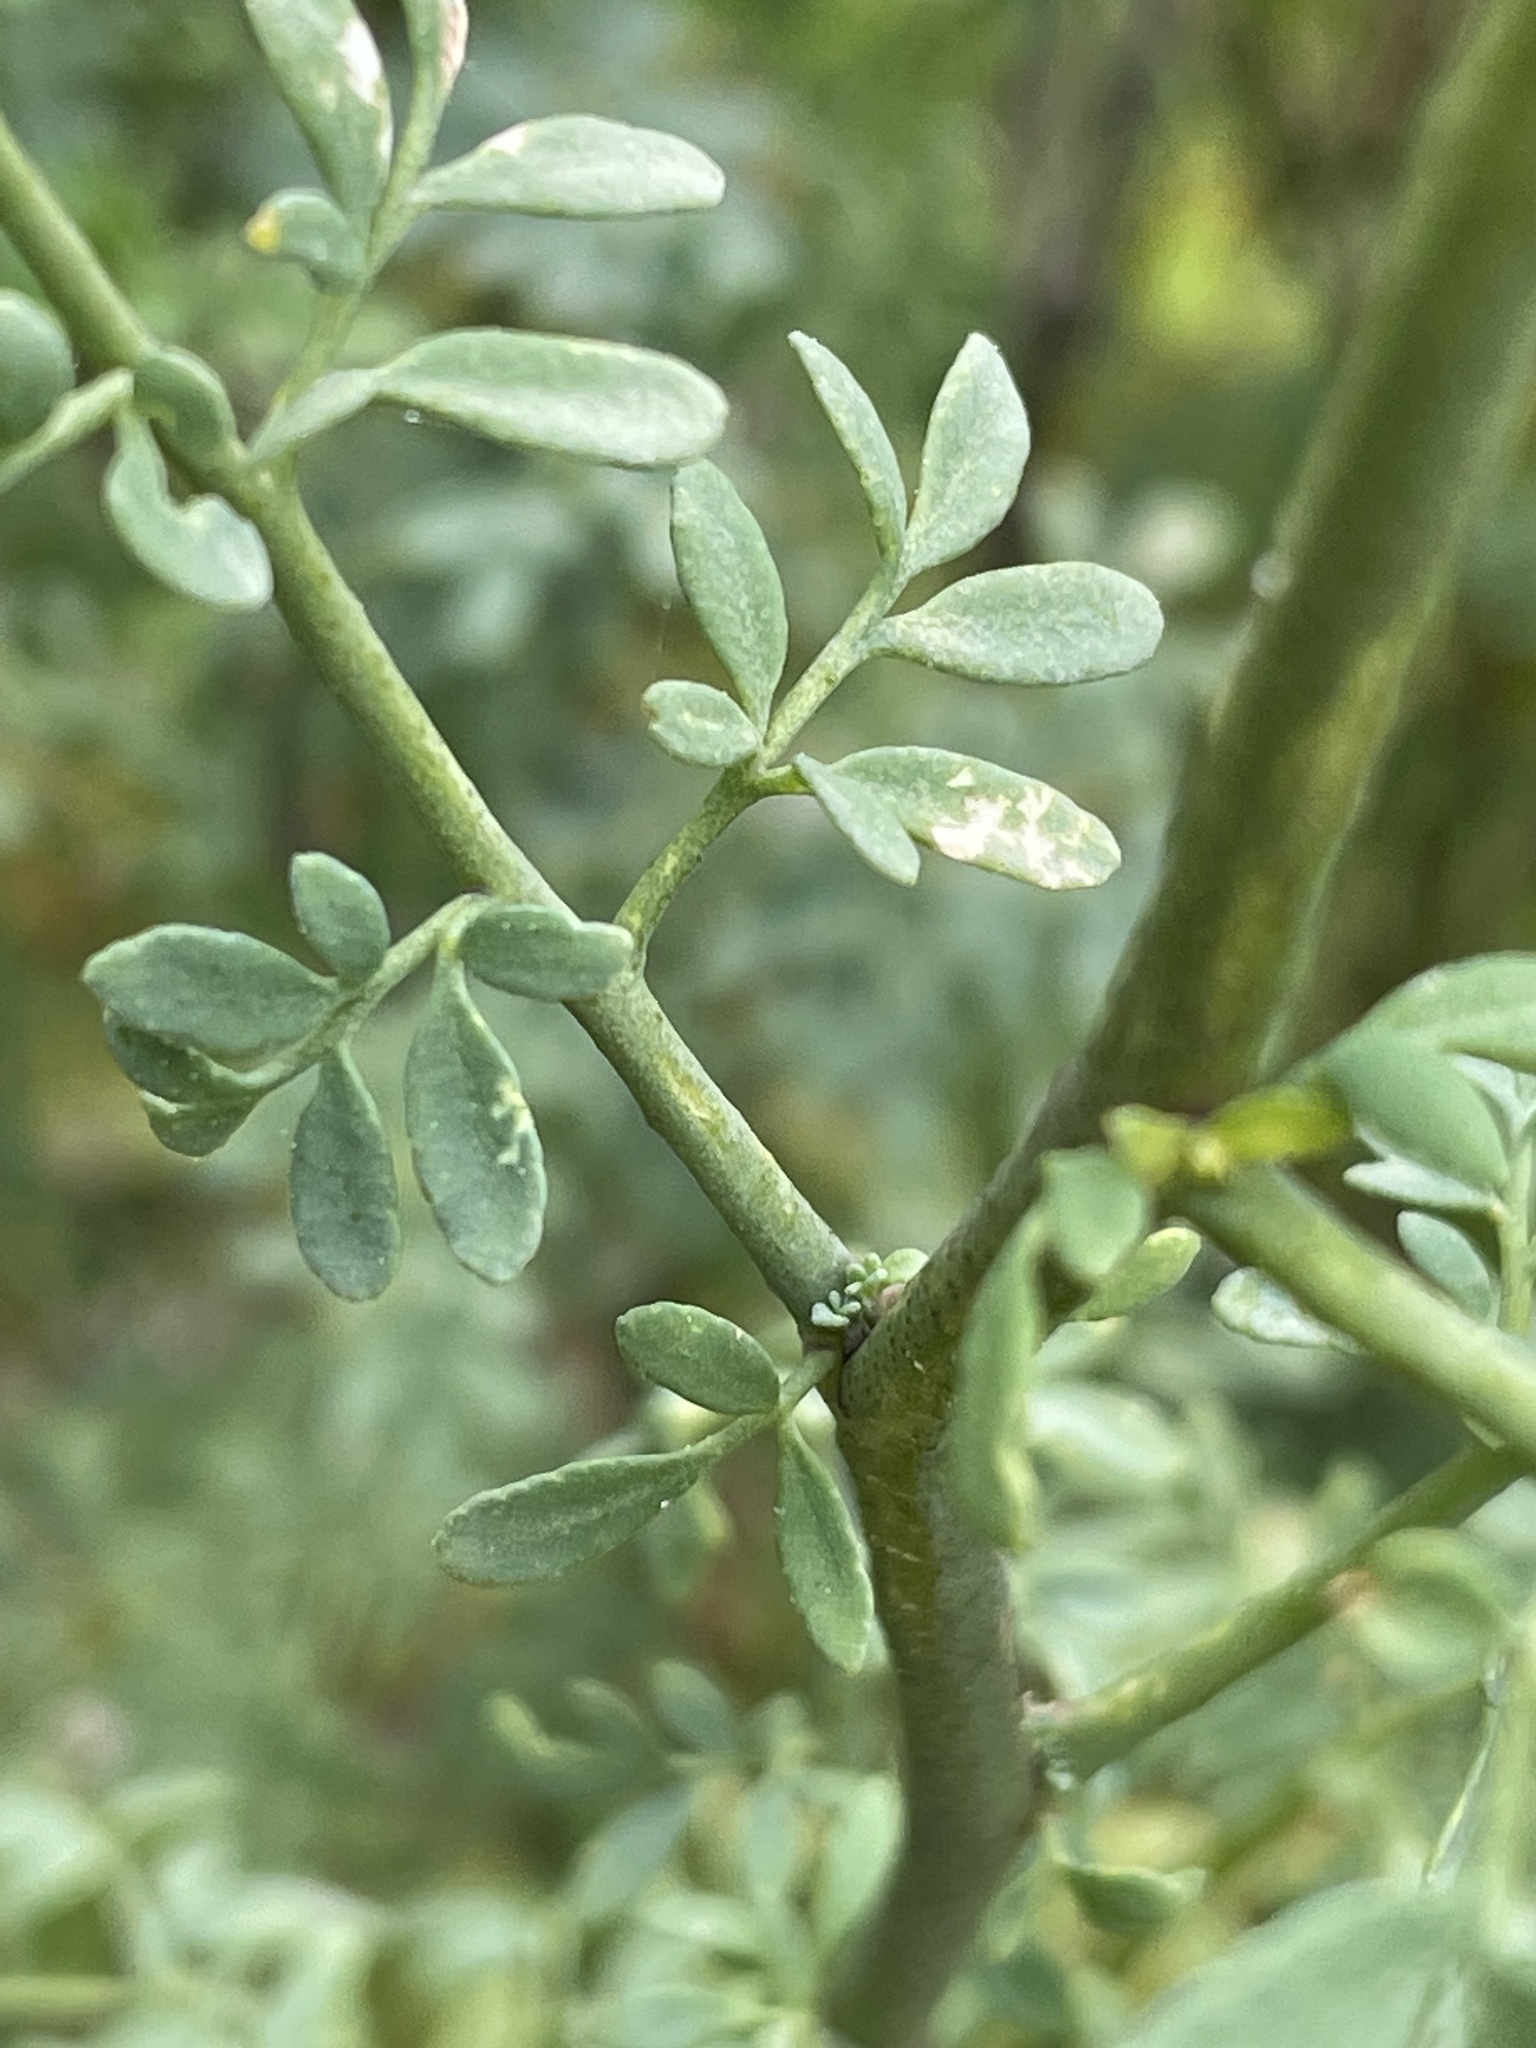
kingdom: Plantae
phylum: Tracheophyta
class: Magnoliopsida
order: Sapindales
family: Rutaceae
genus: Ruta
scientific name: Ruta chalepensis
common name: Fringed rue
